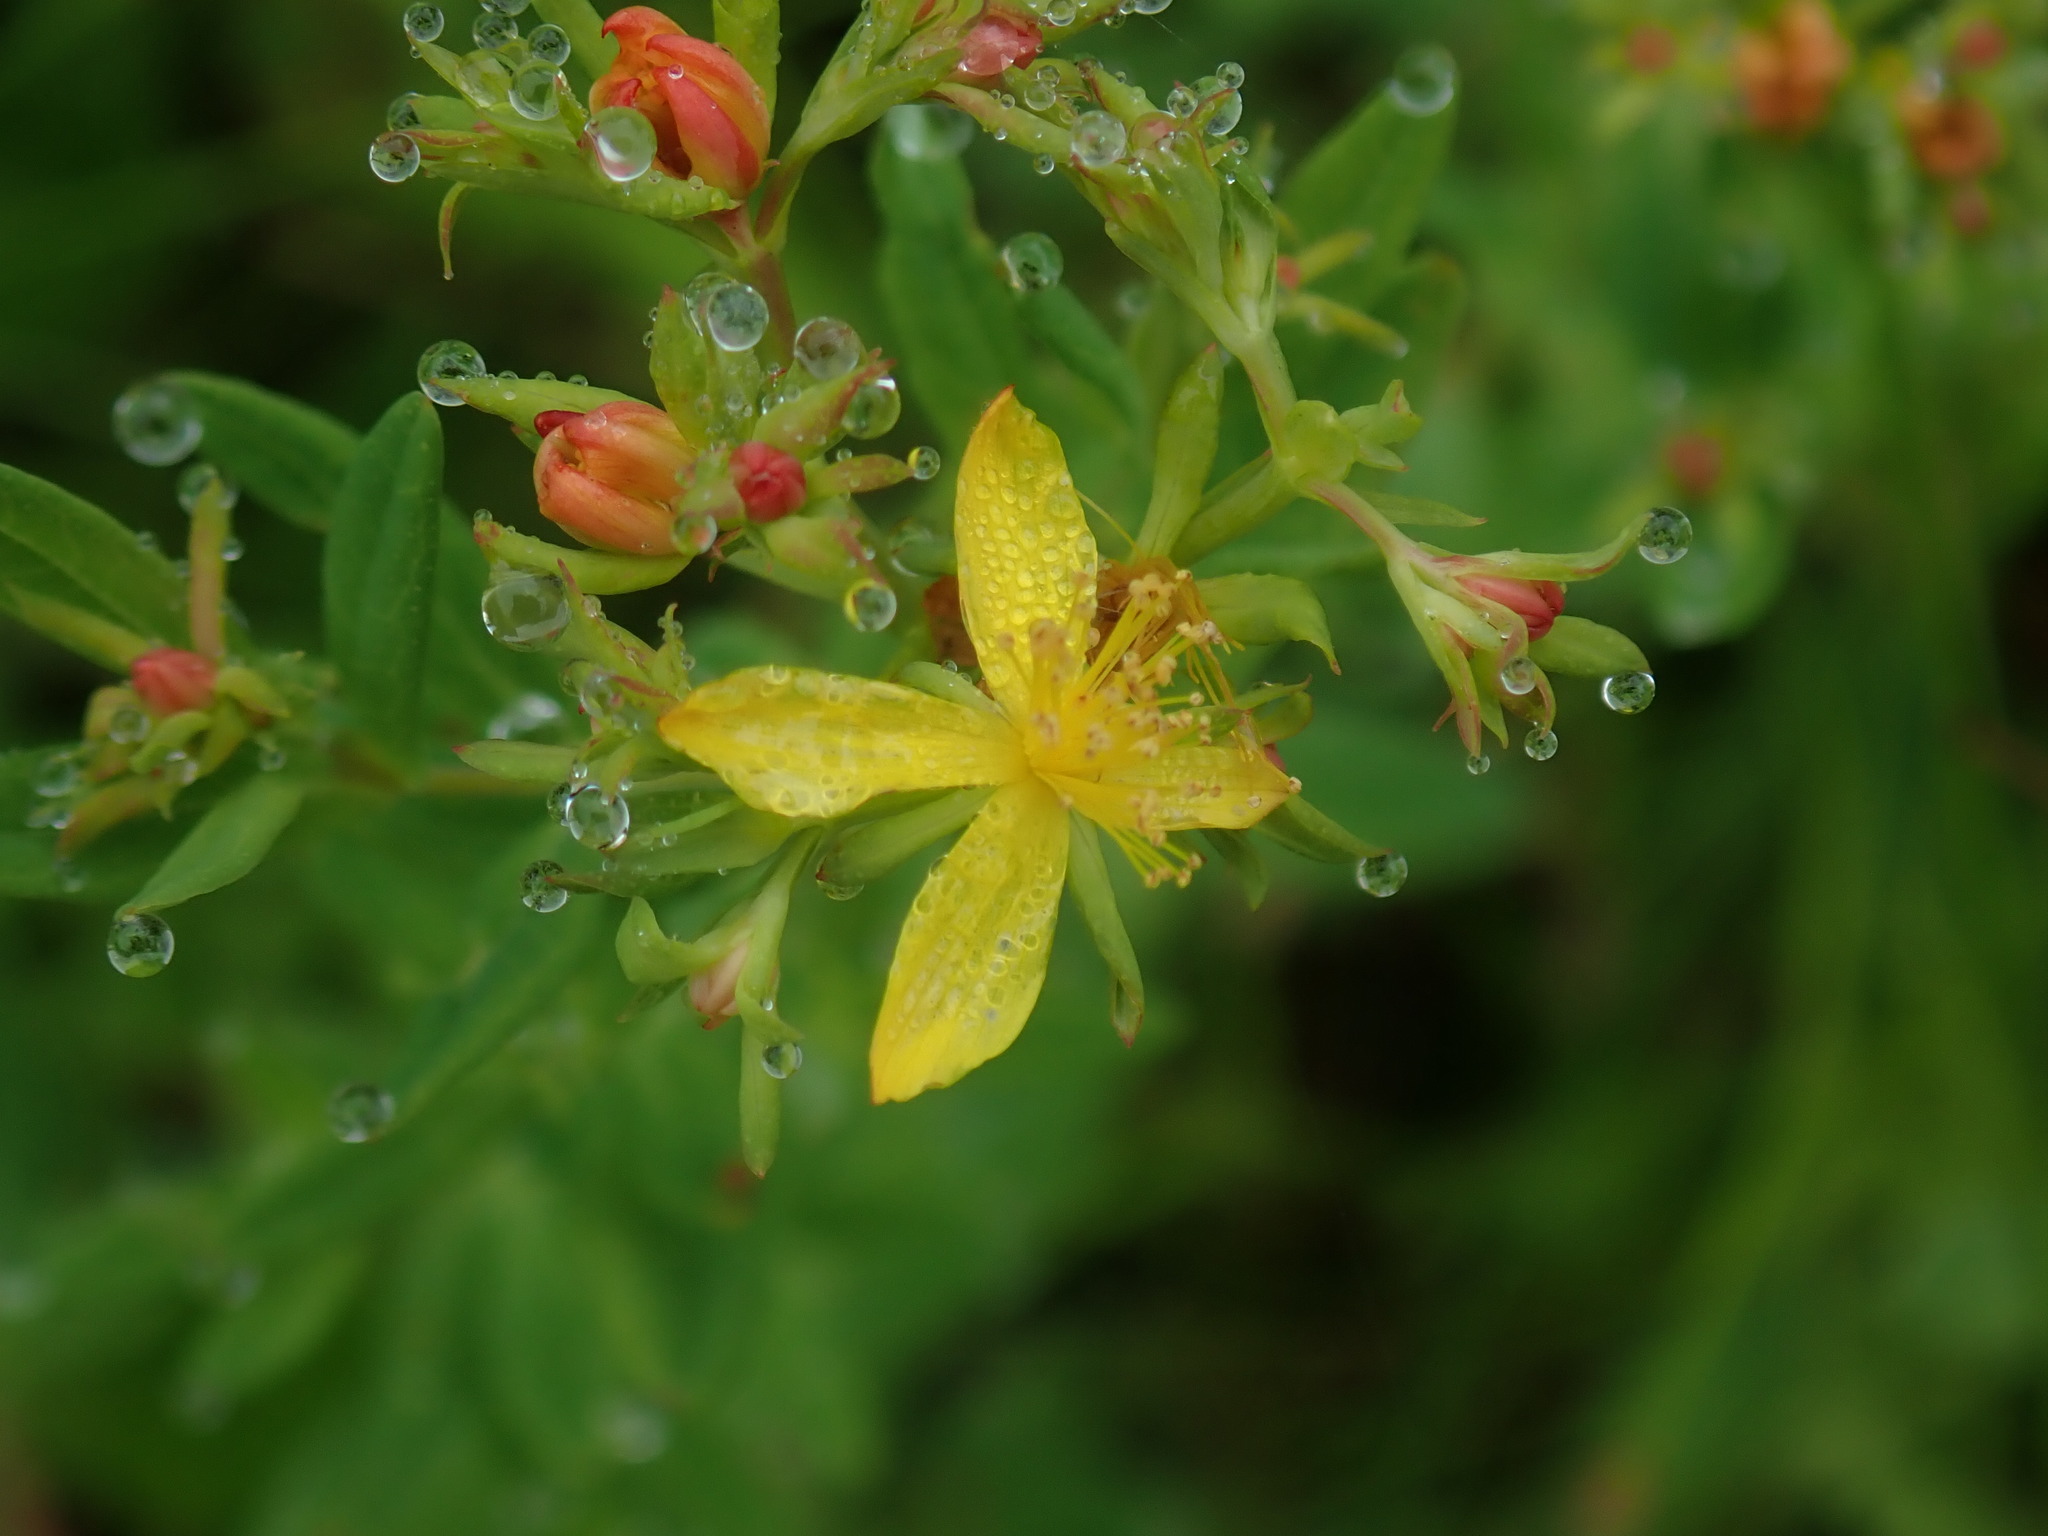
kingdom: Plantae
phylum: Tracheophyta
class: Magnoliopsida
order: Malpighiales
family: Hypericaceae
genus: Hypericum
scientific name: Hypericum perforatum
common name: Common st. johnswort
